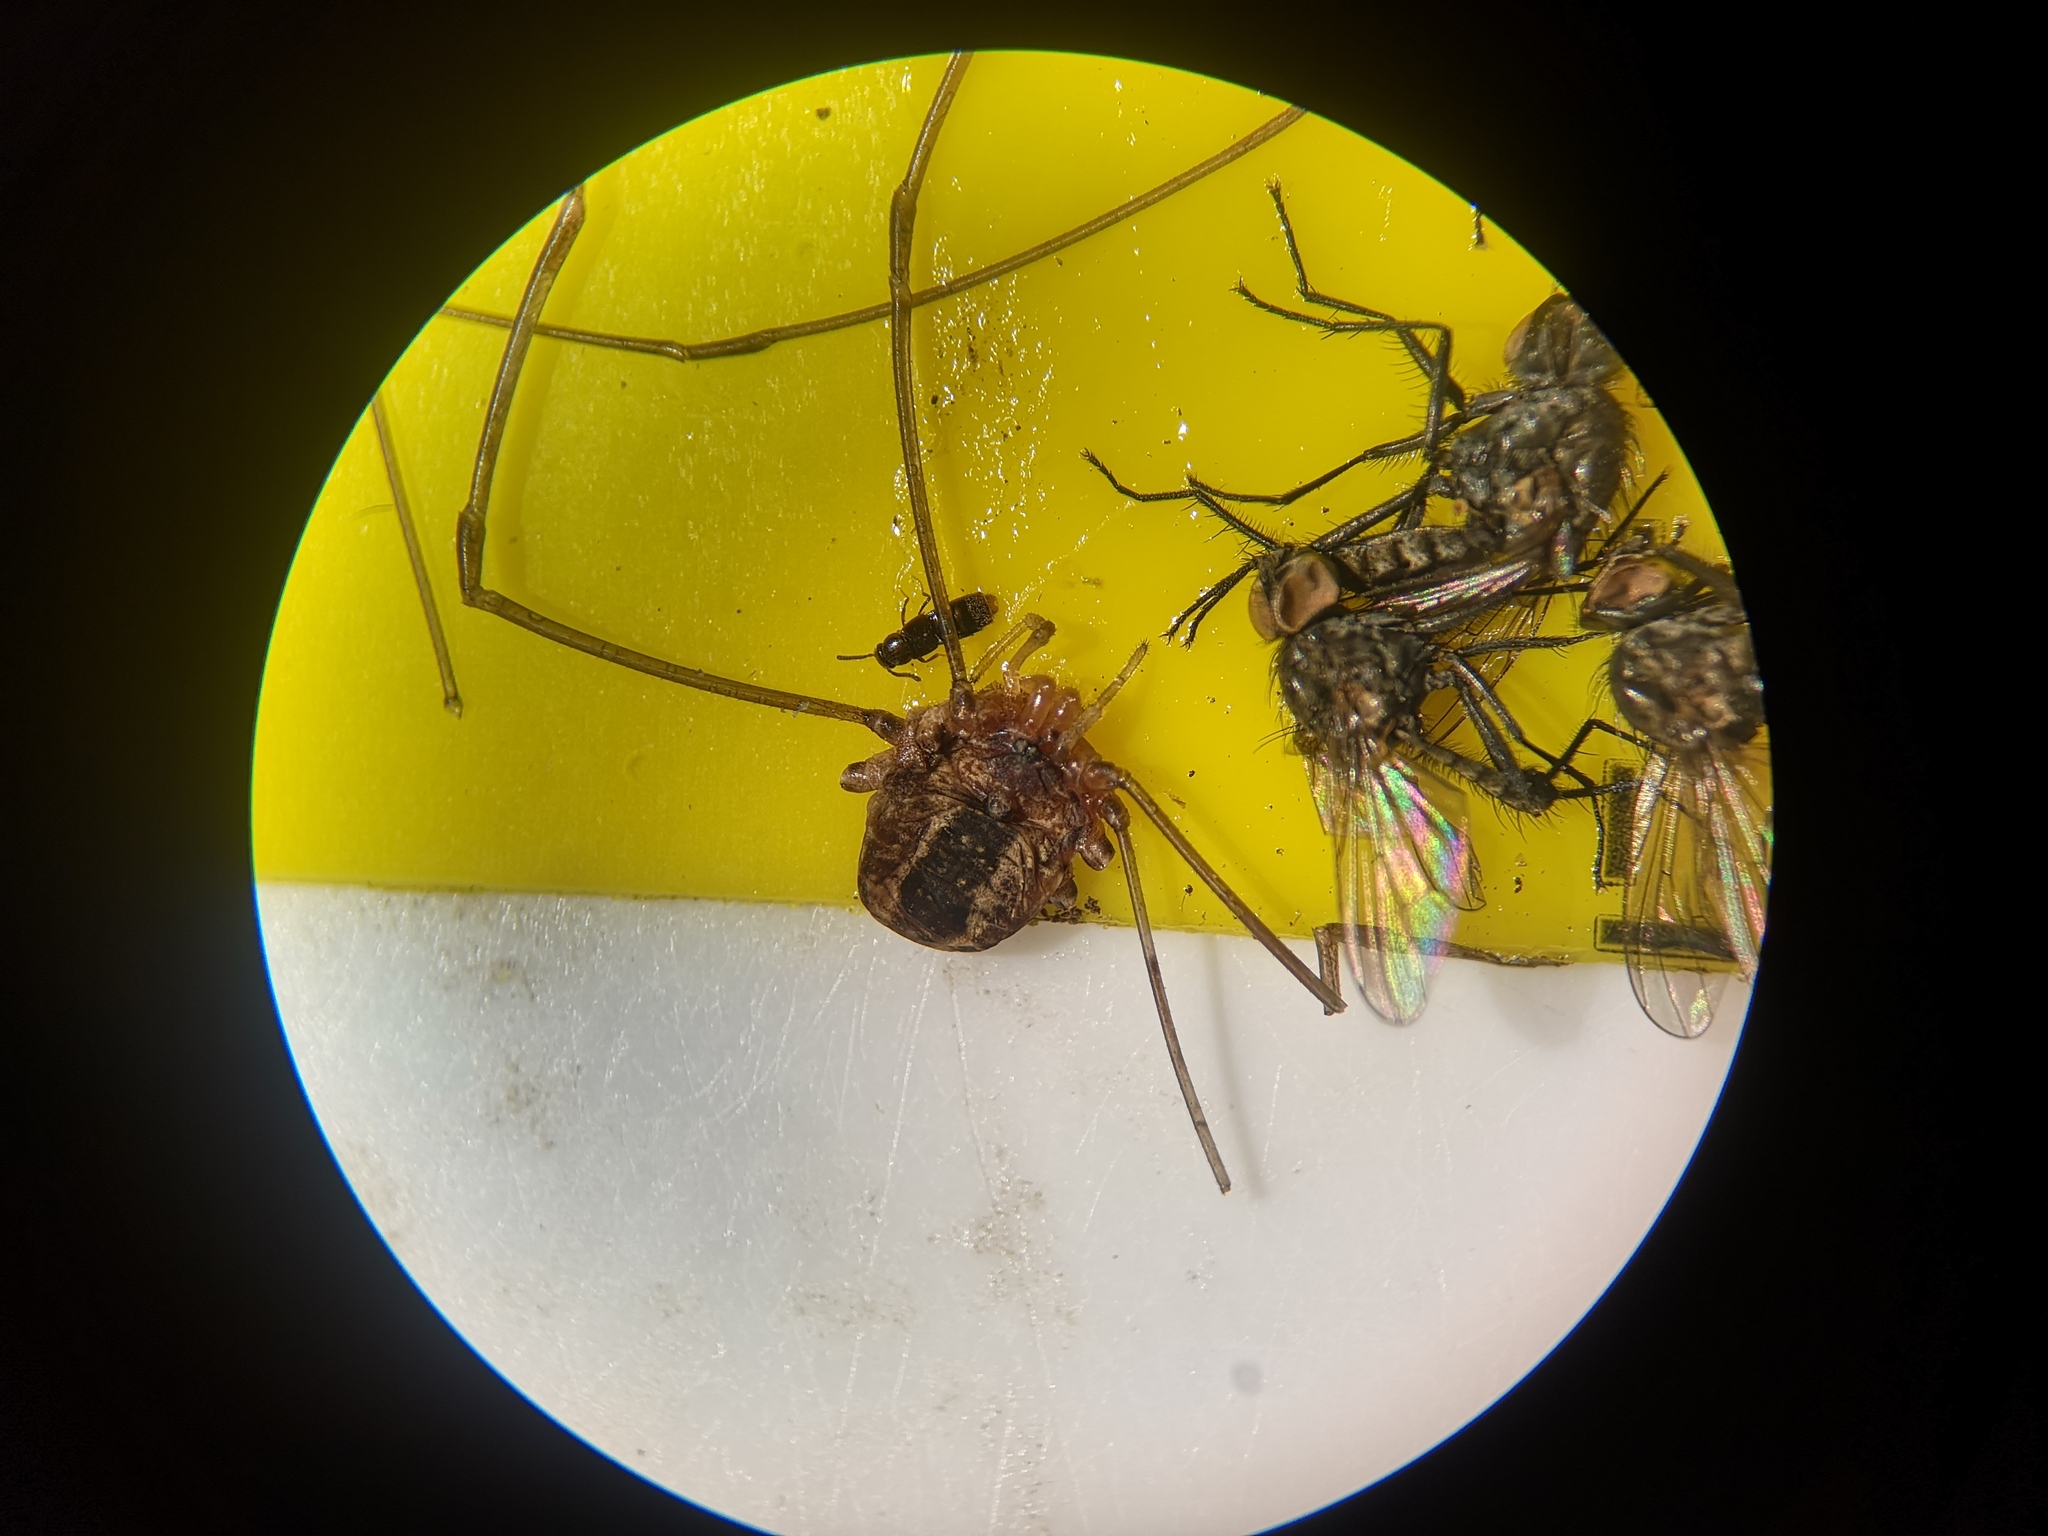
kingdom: Animalia
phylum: Arthropoda
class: Arachnida
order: Opiliones
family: Sclerosomatidae
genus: Leiobunum
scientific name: Leiobunum rotundum
